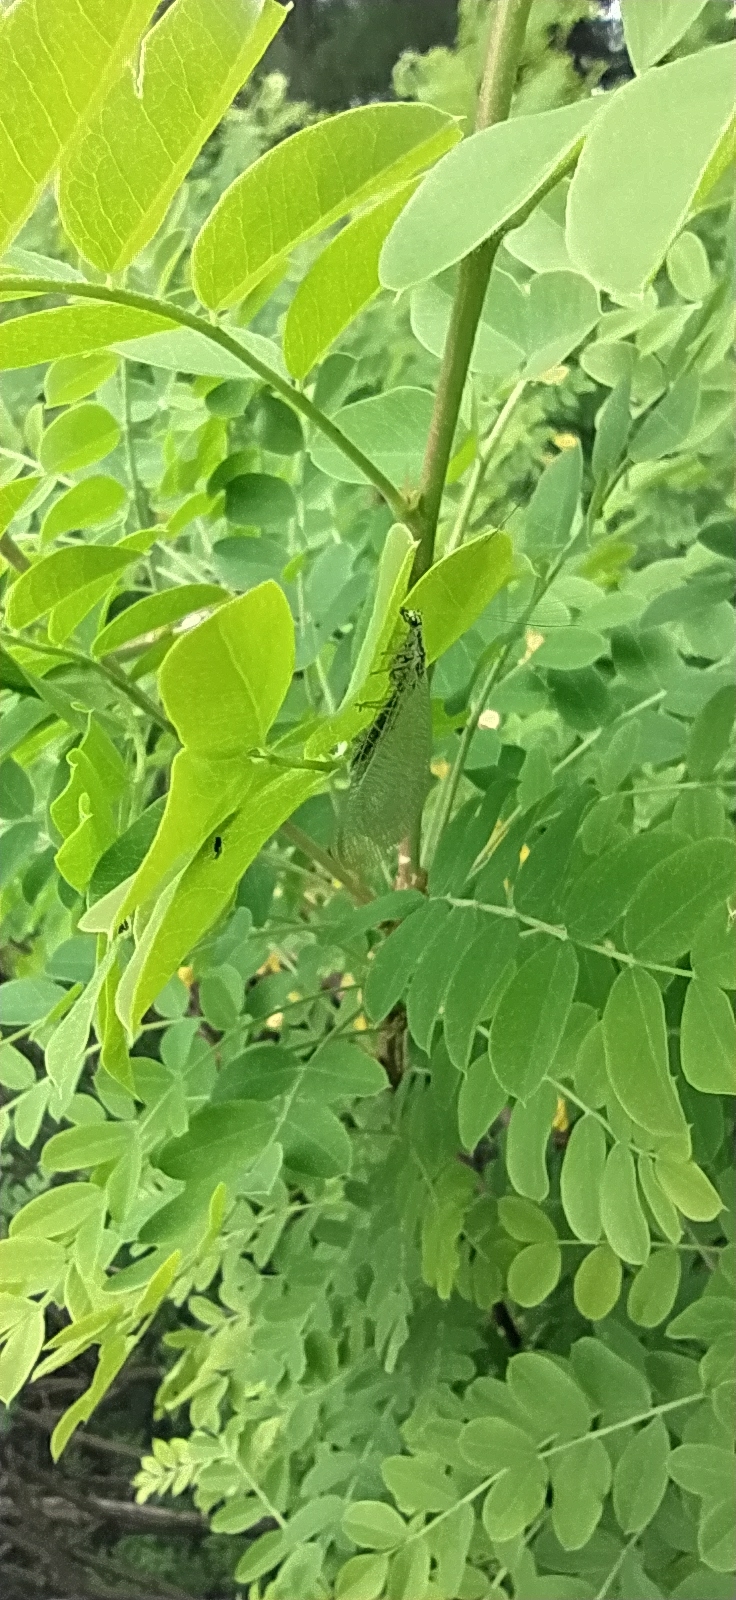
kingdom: Animalia
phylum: Arthropoda
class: Insecta
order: Neuroptera
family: Chrysopidae
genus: Chrysopa
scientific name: Chrysopa perla
